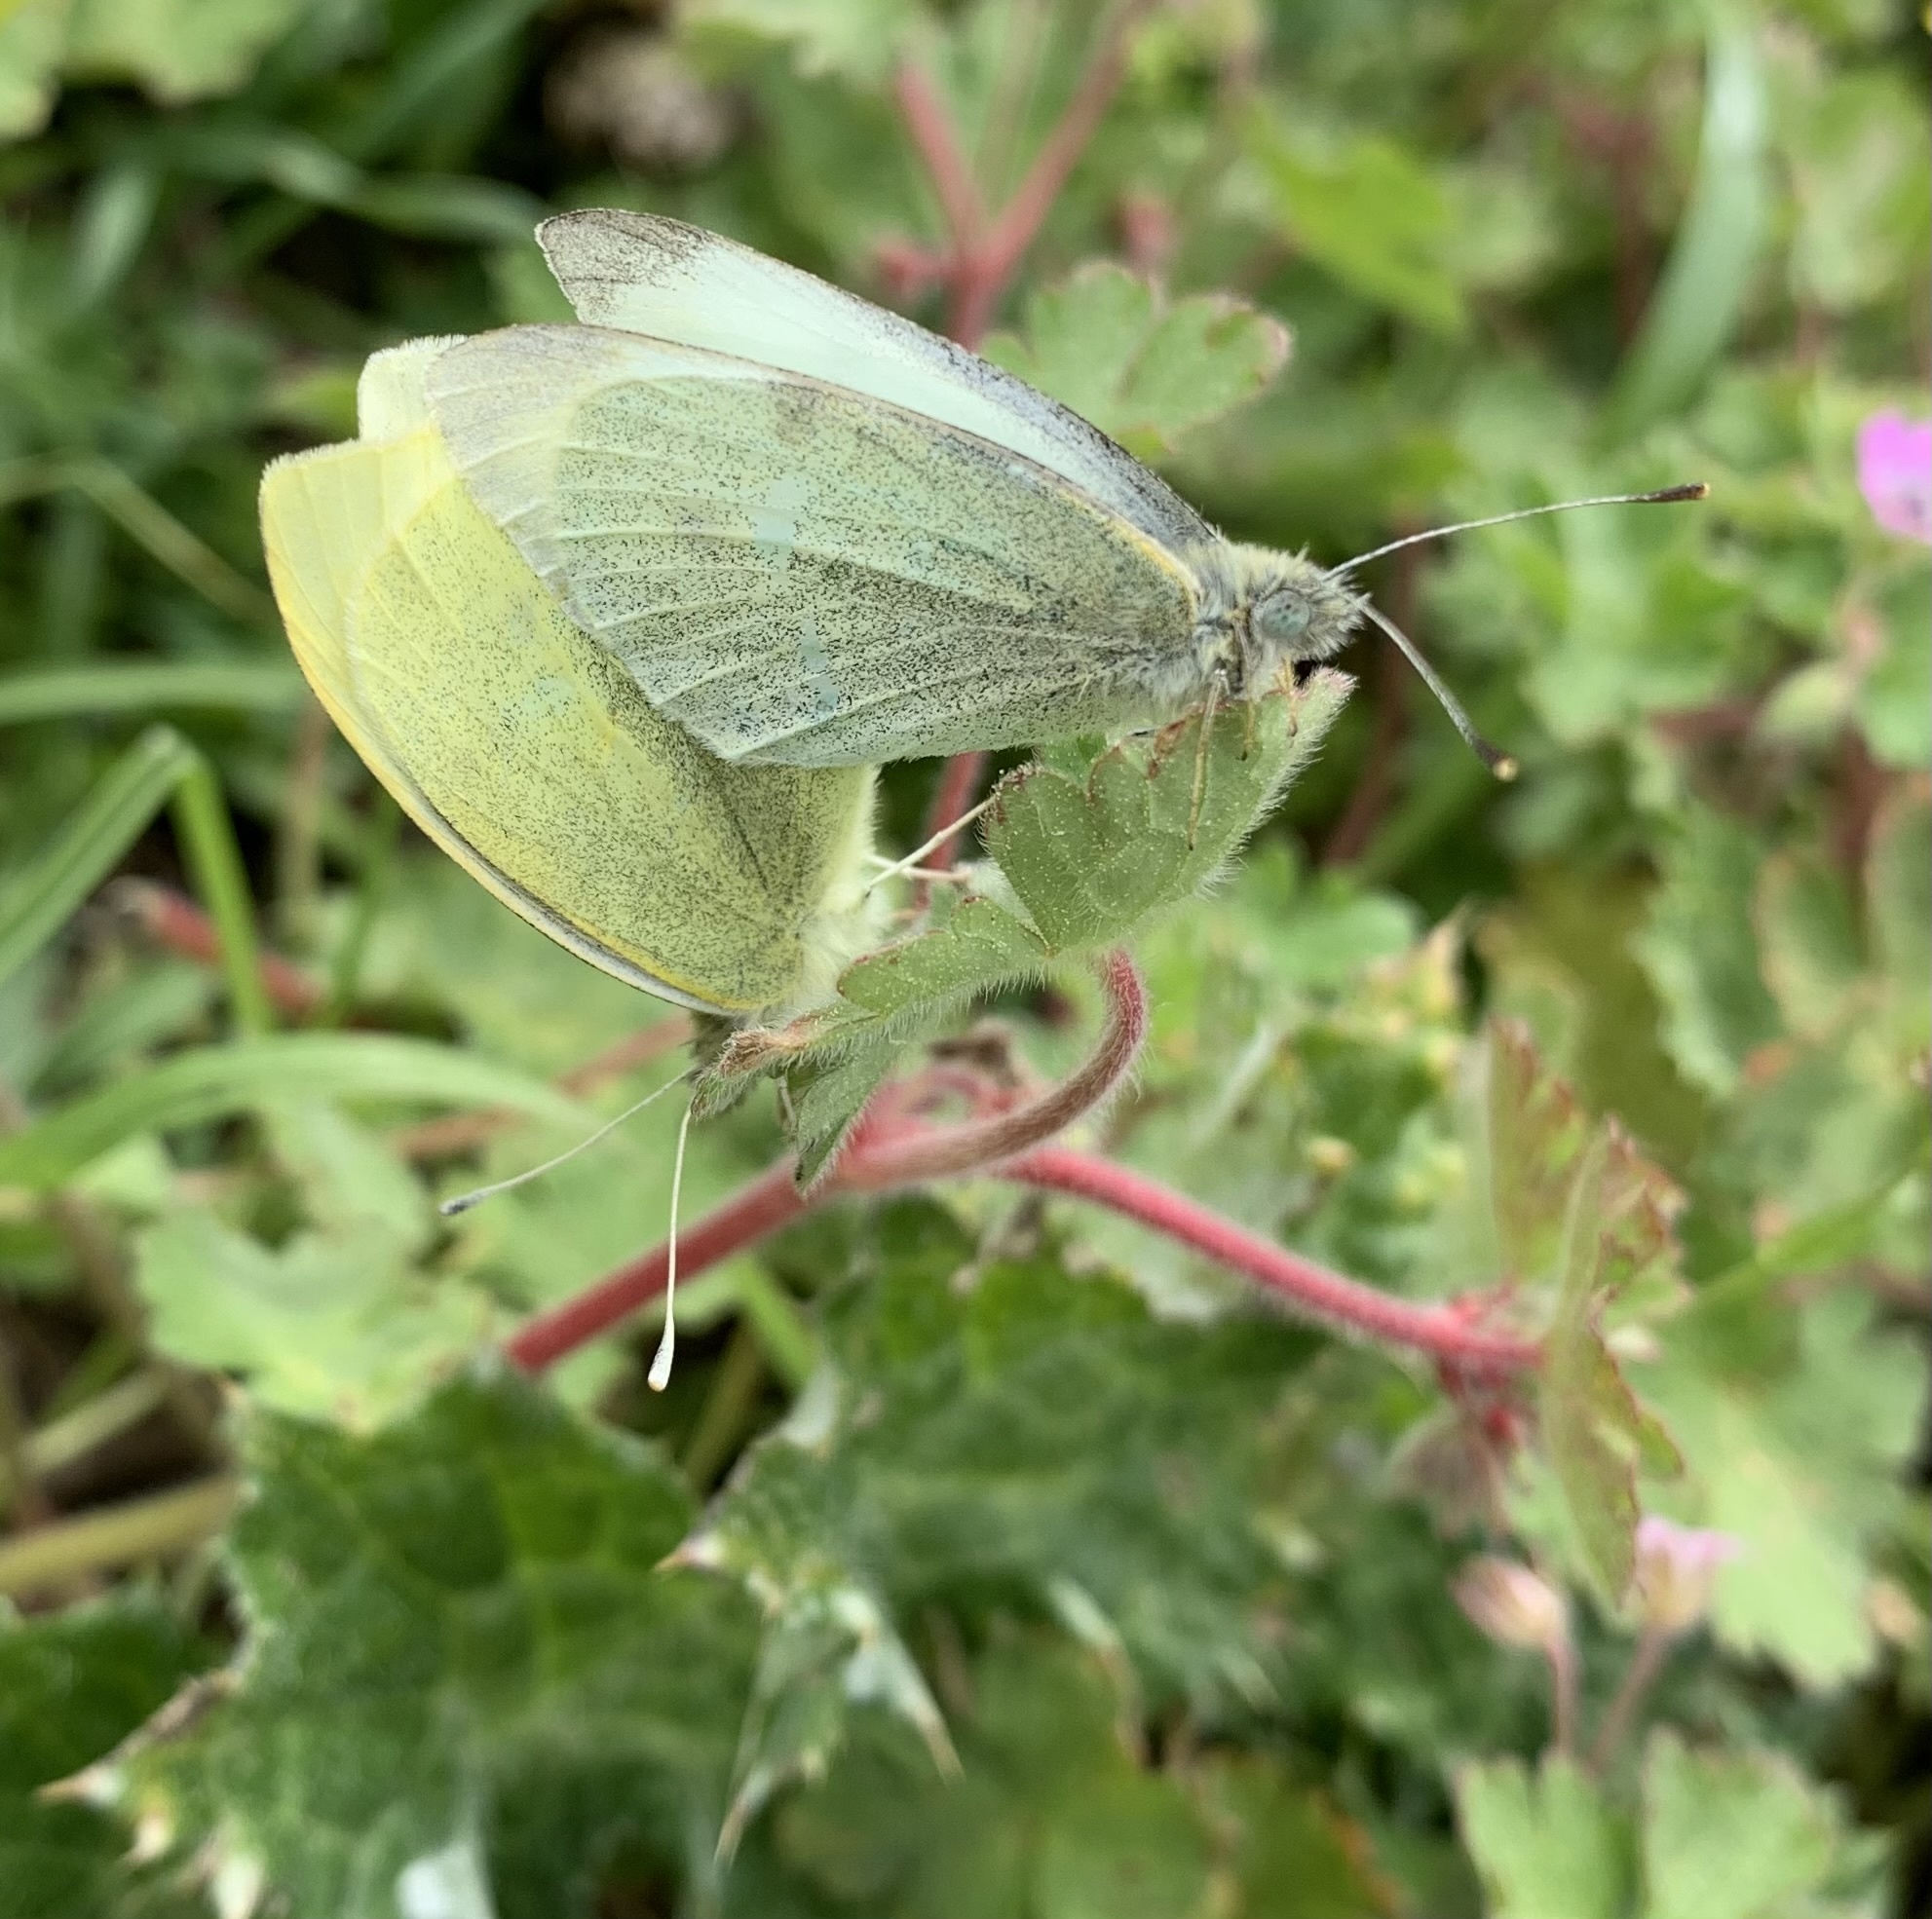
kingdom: Animalia
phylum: Arthropoda
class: Insecta
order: Lepidoptera
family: Pieridae
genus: Pieris
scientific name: Pieris rapae
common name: Small white
